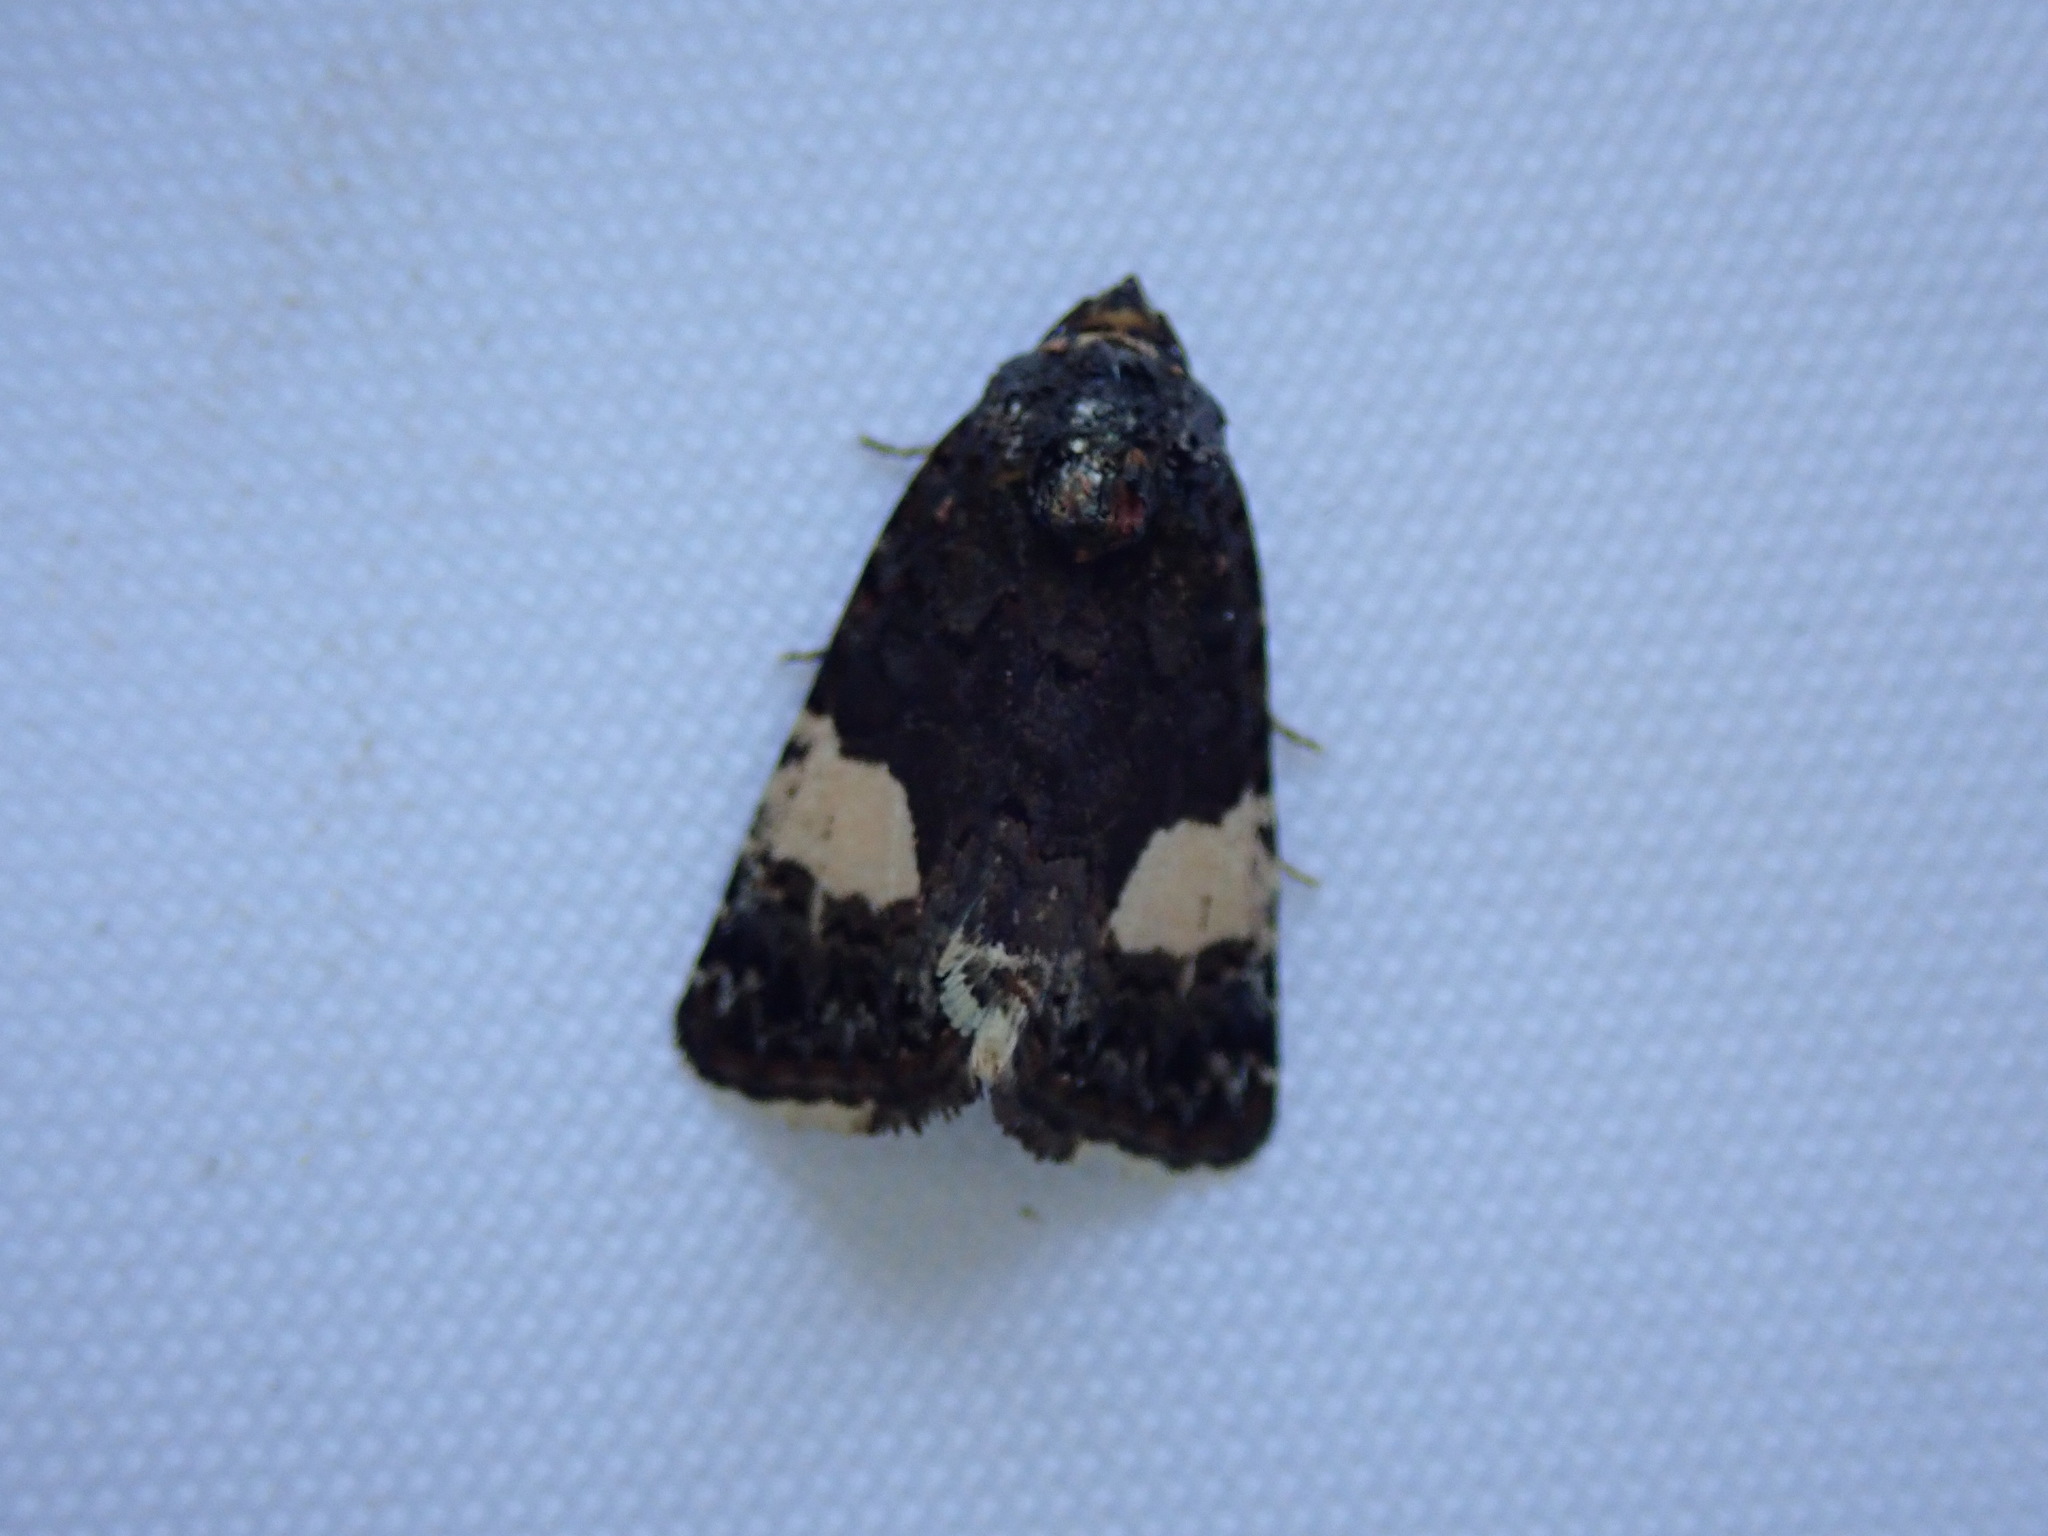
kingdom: Animalia
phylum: Arthropoda
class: Insecta
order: Lepidoptera
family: Erebidae
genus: Tyta
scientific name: Tyta luctuosa
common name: Four-spotted
